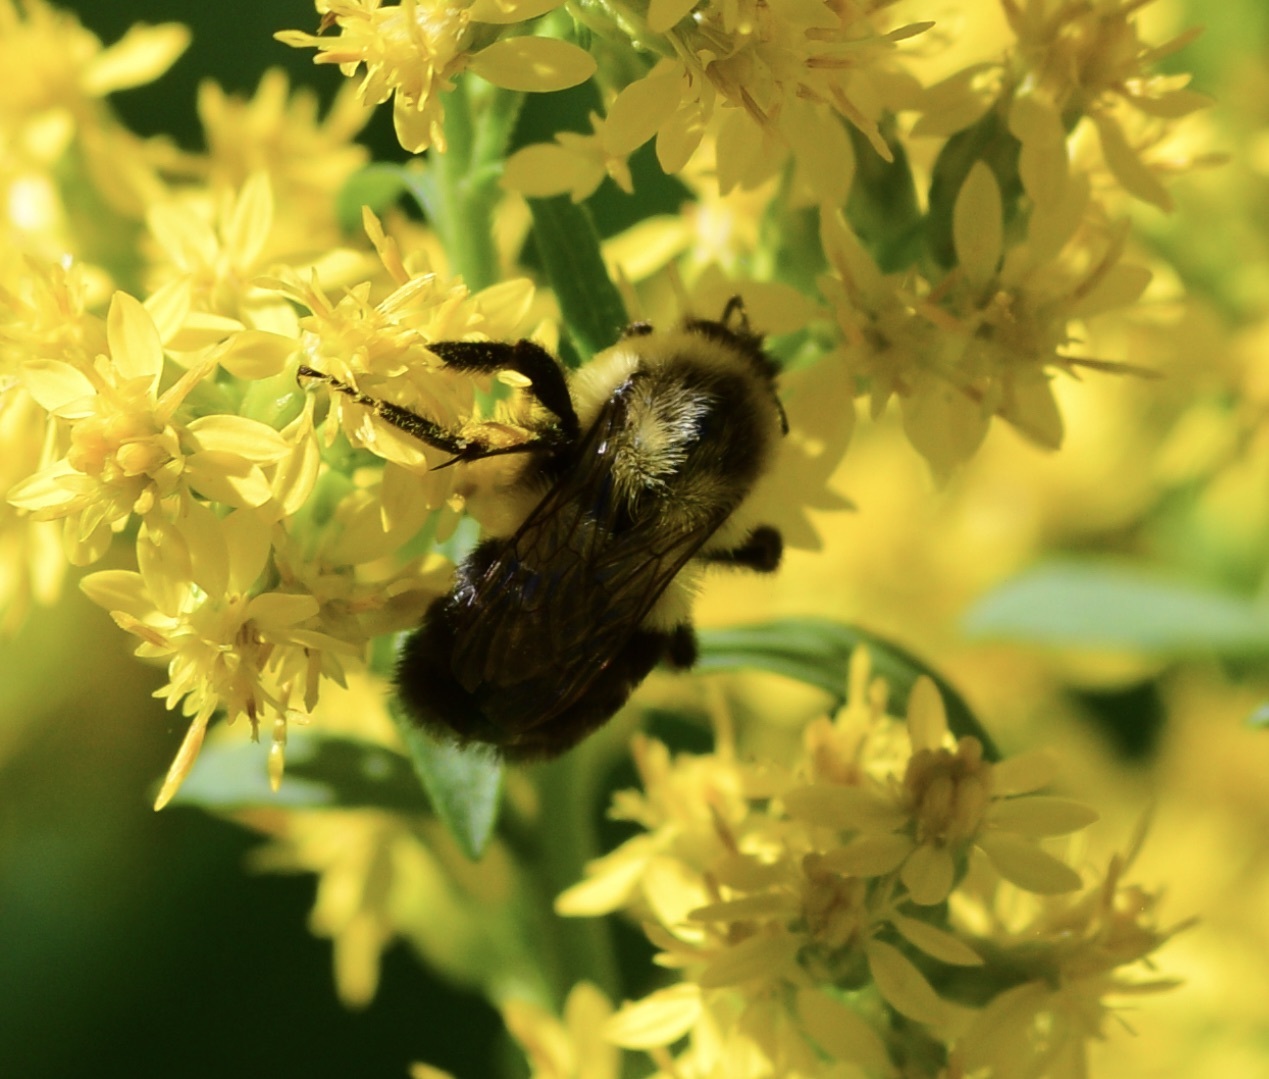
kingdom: Animalia
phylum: Arthropoda
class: Insecta
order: Hymenoptera
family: Apidae
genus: Bombus
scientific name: Bombus impatiens
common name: Common eastern bumble bee
